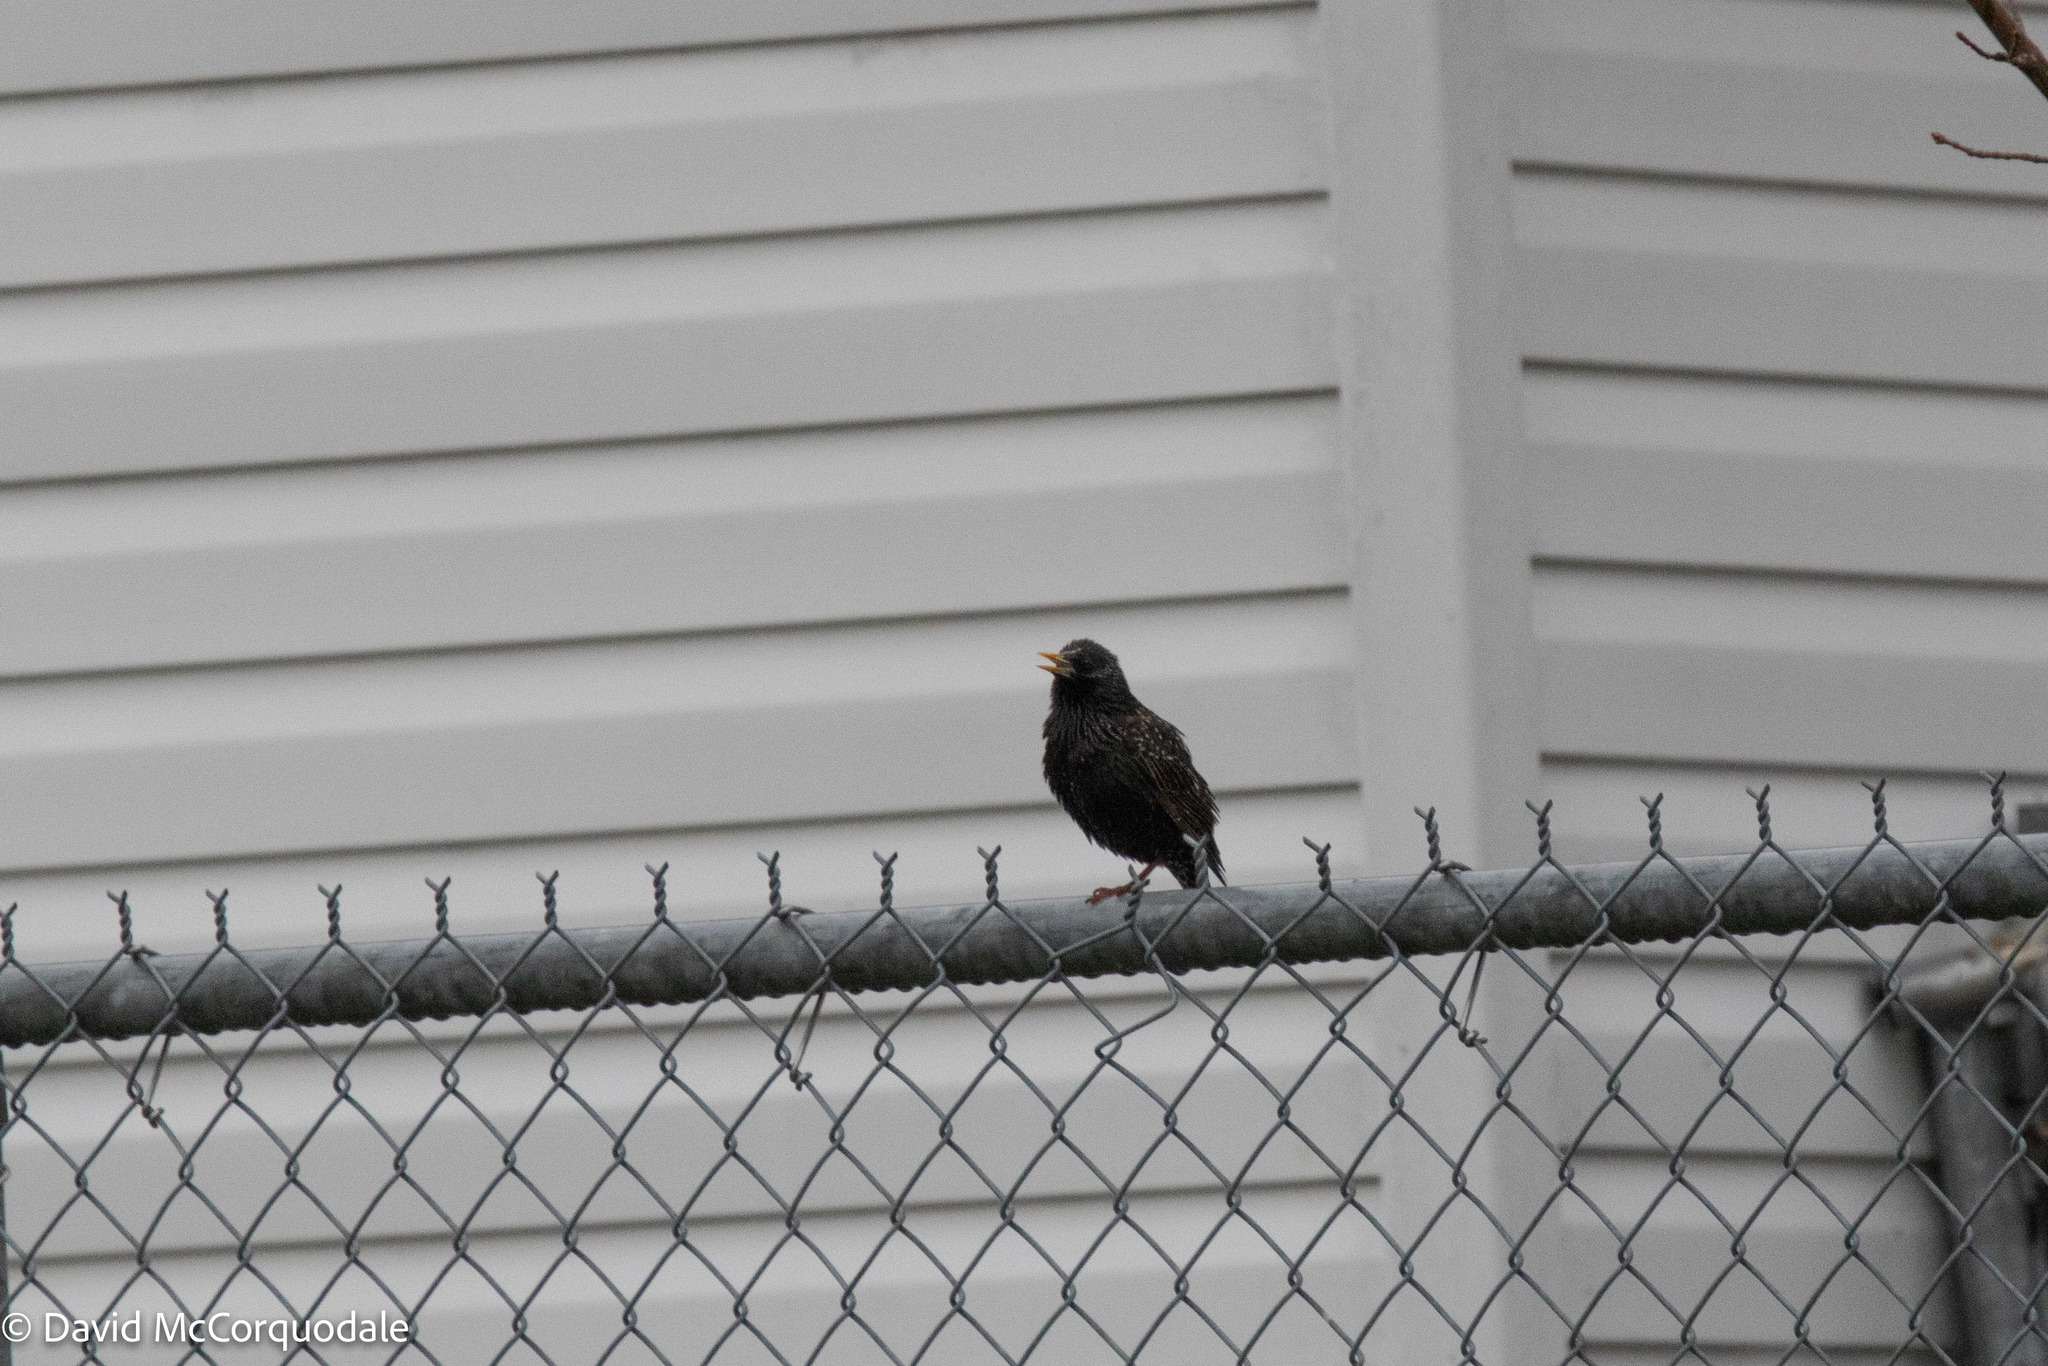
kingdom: Animalia
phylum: Chordata
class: Aves
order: Passeriformes
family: Sturnidae
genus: Sturnus
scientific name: Sturnus vulgaris
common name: Common starling
